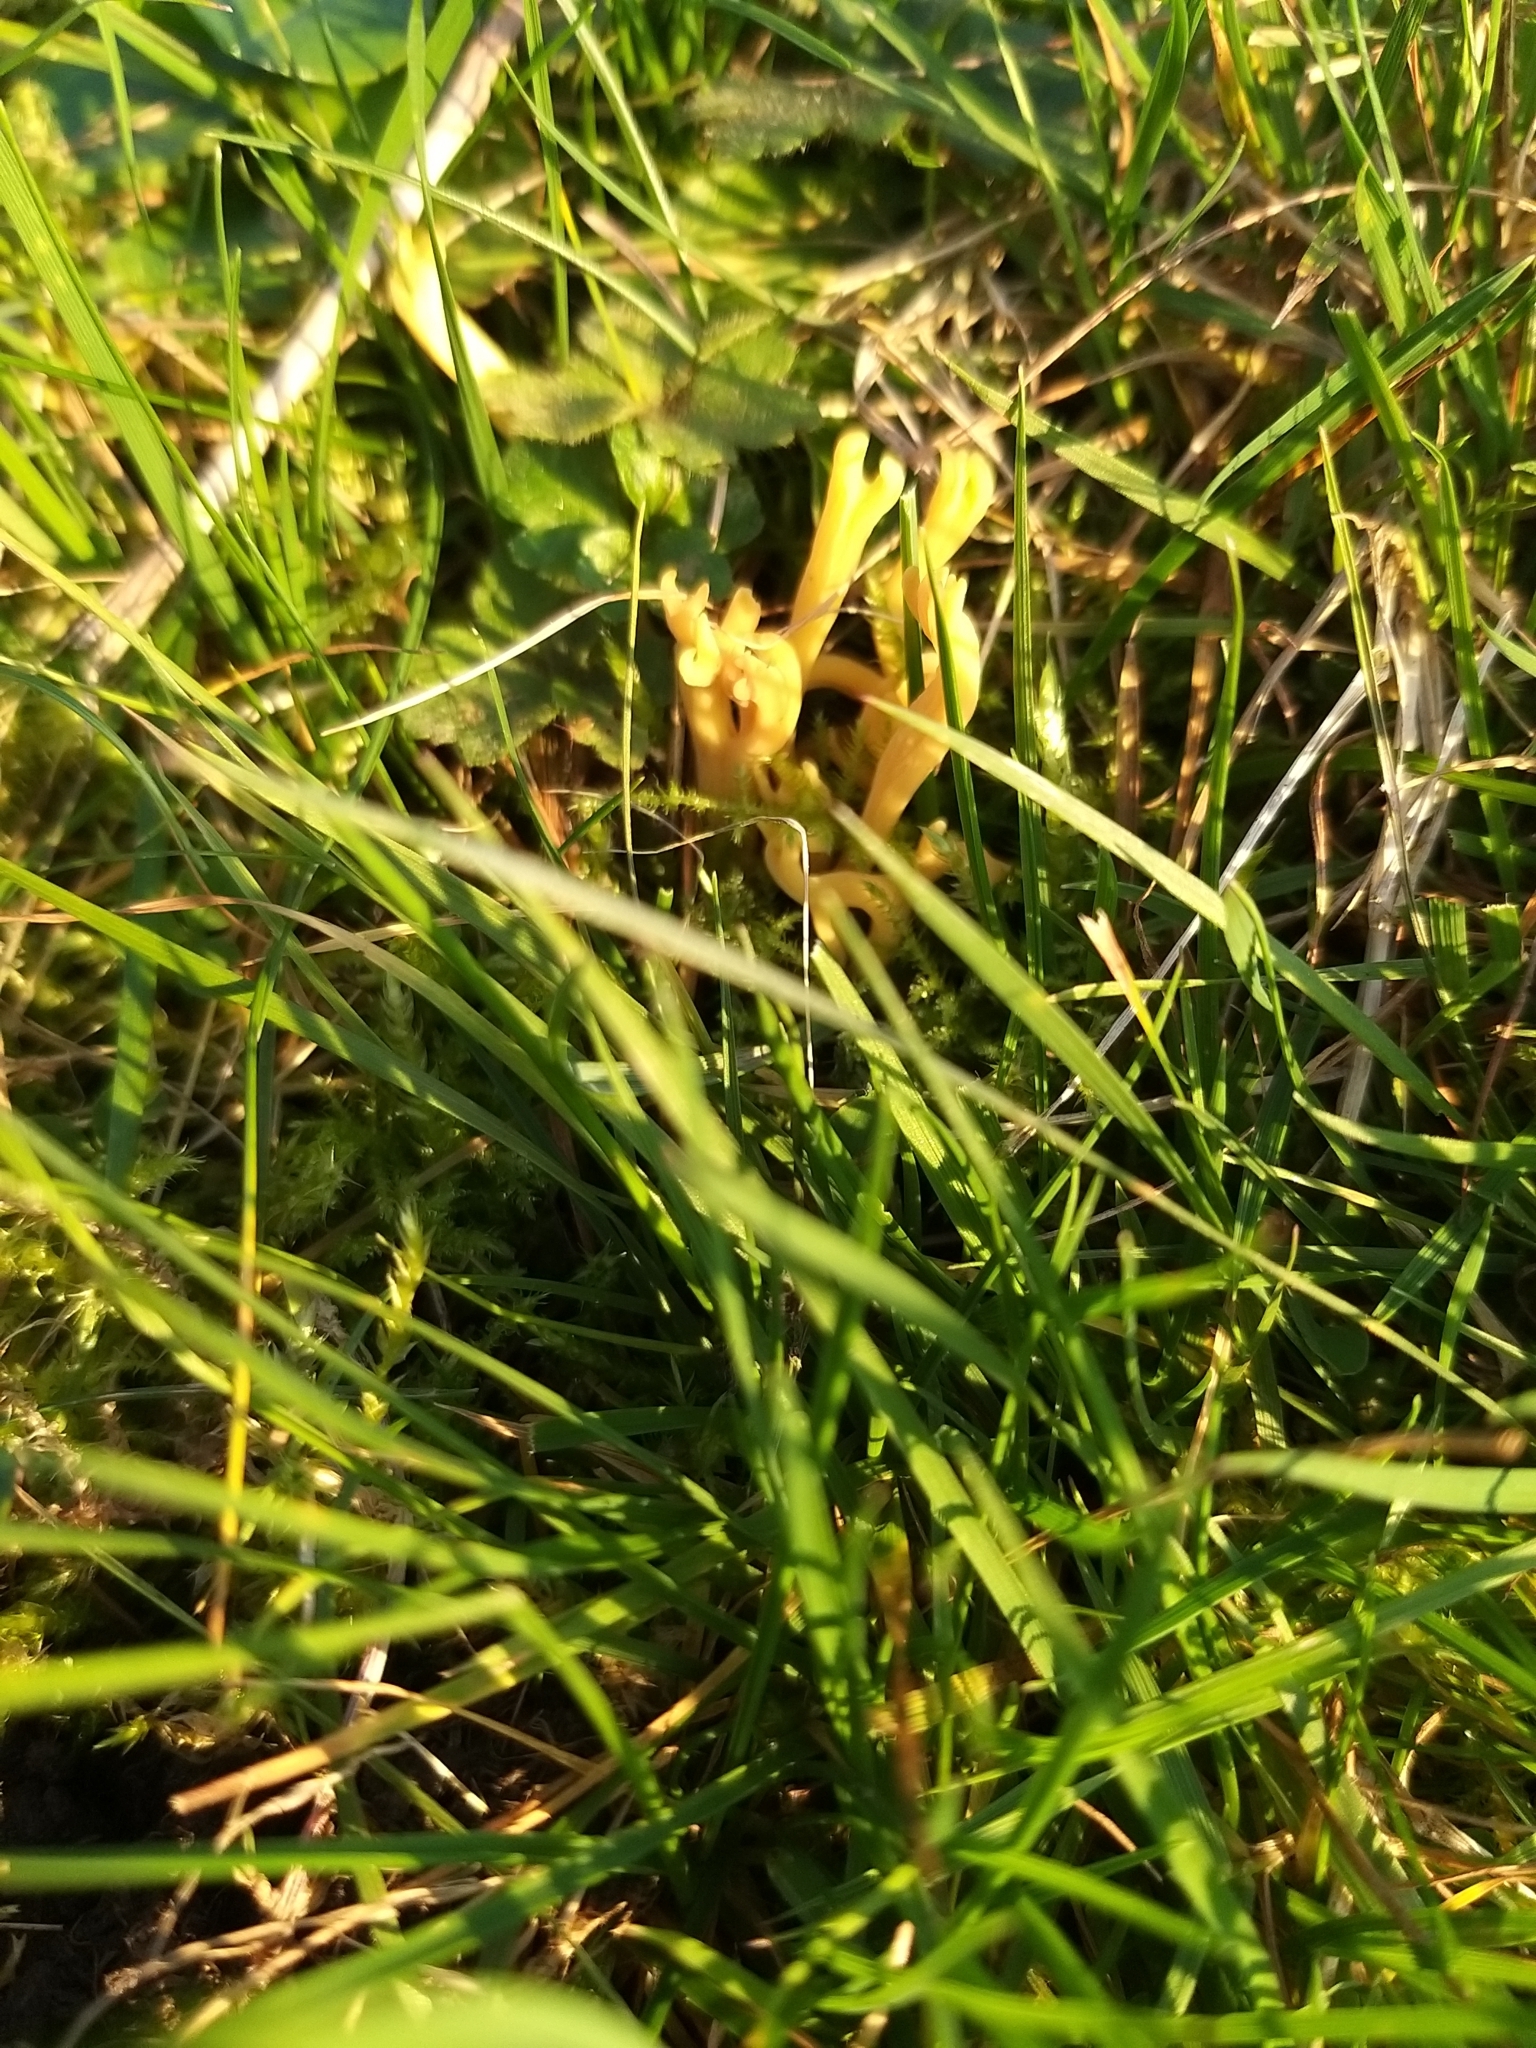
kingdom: Fungi
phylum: Basidiomycota
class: Agaricomycetes
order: Agaricales
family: Clavariaceae
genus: Clavulinopsis
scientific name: Clavulinopsis corniculata
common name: Meadow coral
